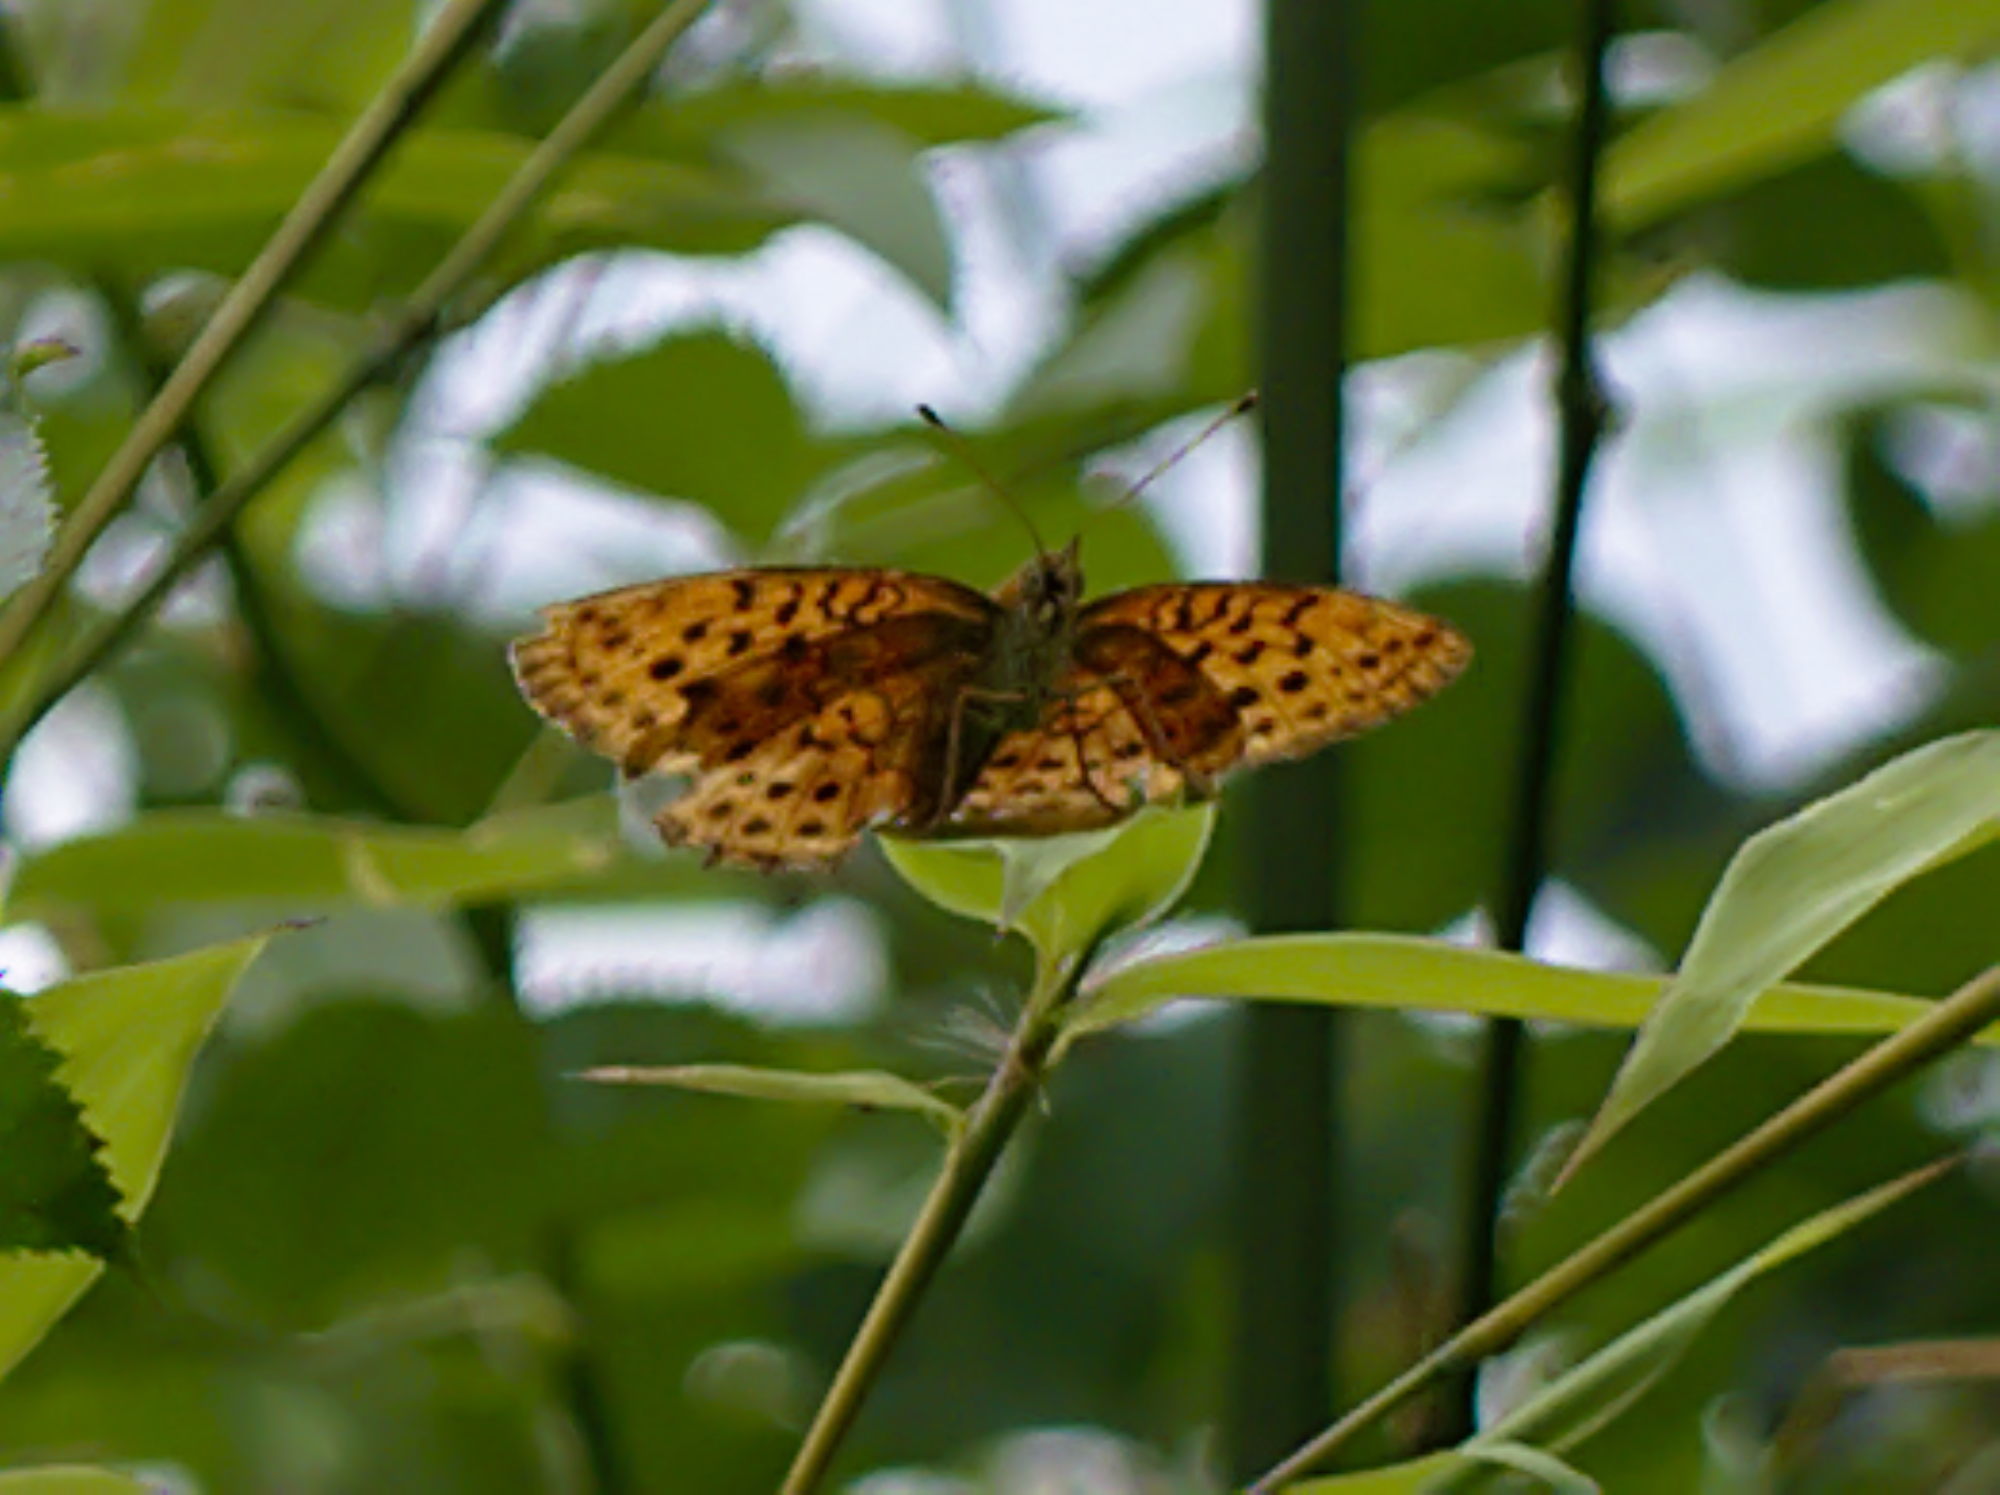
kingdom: Animalia
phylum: Arthropoda
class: Insecta
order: Lepidoptera
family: Nymphalidae
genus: Brenthis
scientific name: Brenthis daphne
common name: Marbled fritillary
